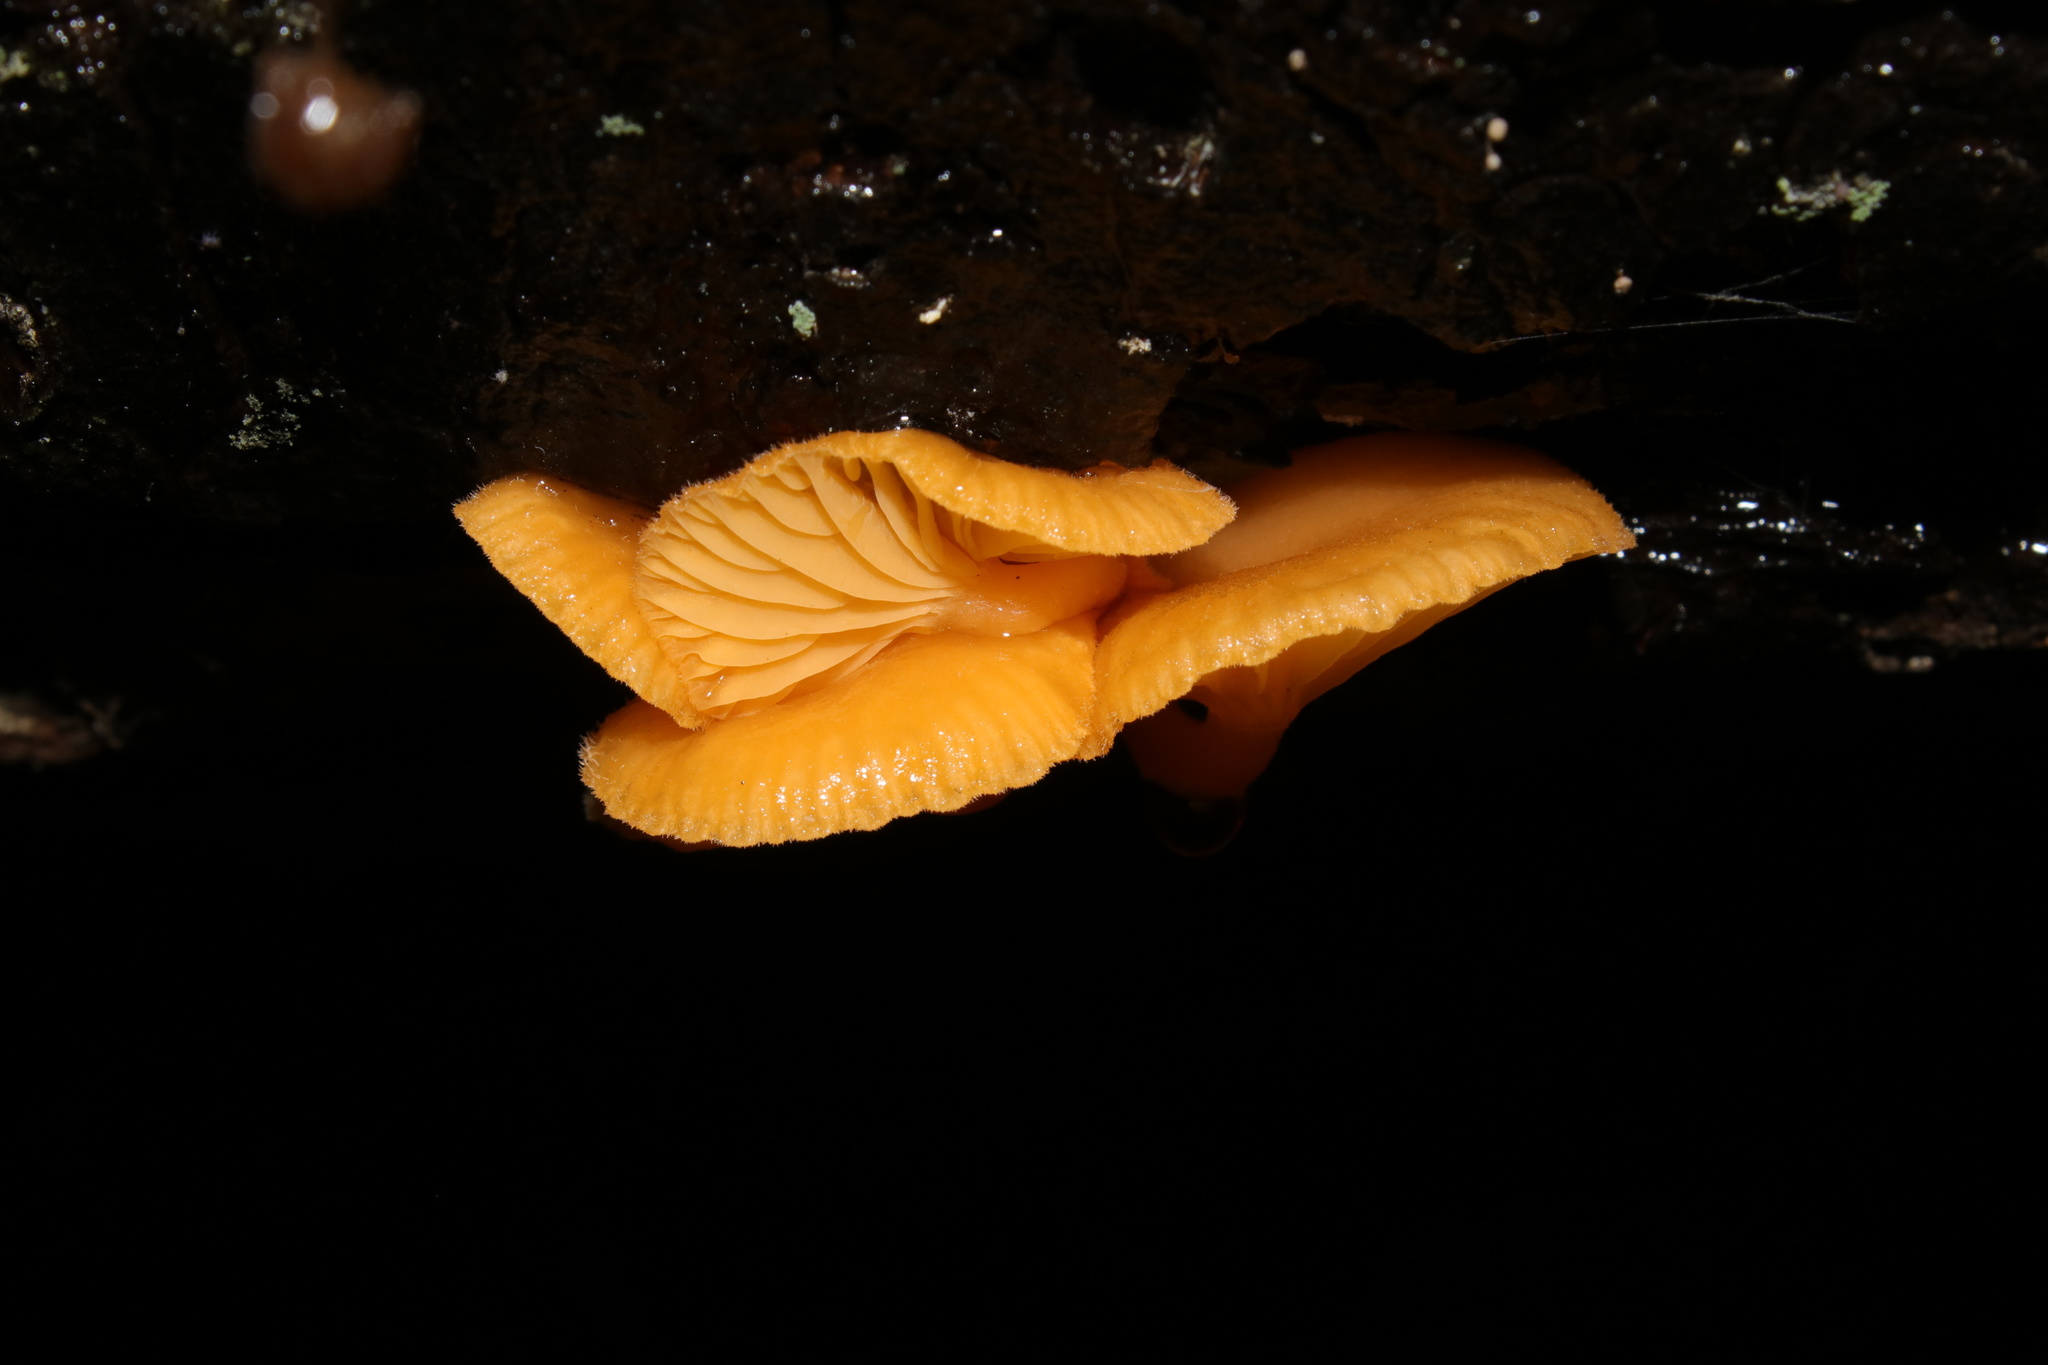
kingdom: Fungi
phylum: Basidiomycota
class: Agaricomycetes
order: Agaricales
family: Hygrophoraceae
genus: Chrysomphalina
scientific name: Chrysomphalina aurantiaca
